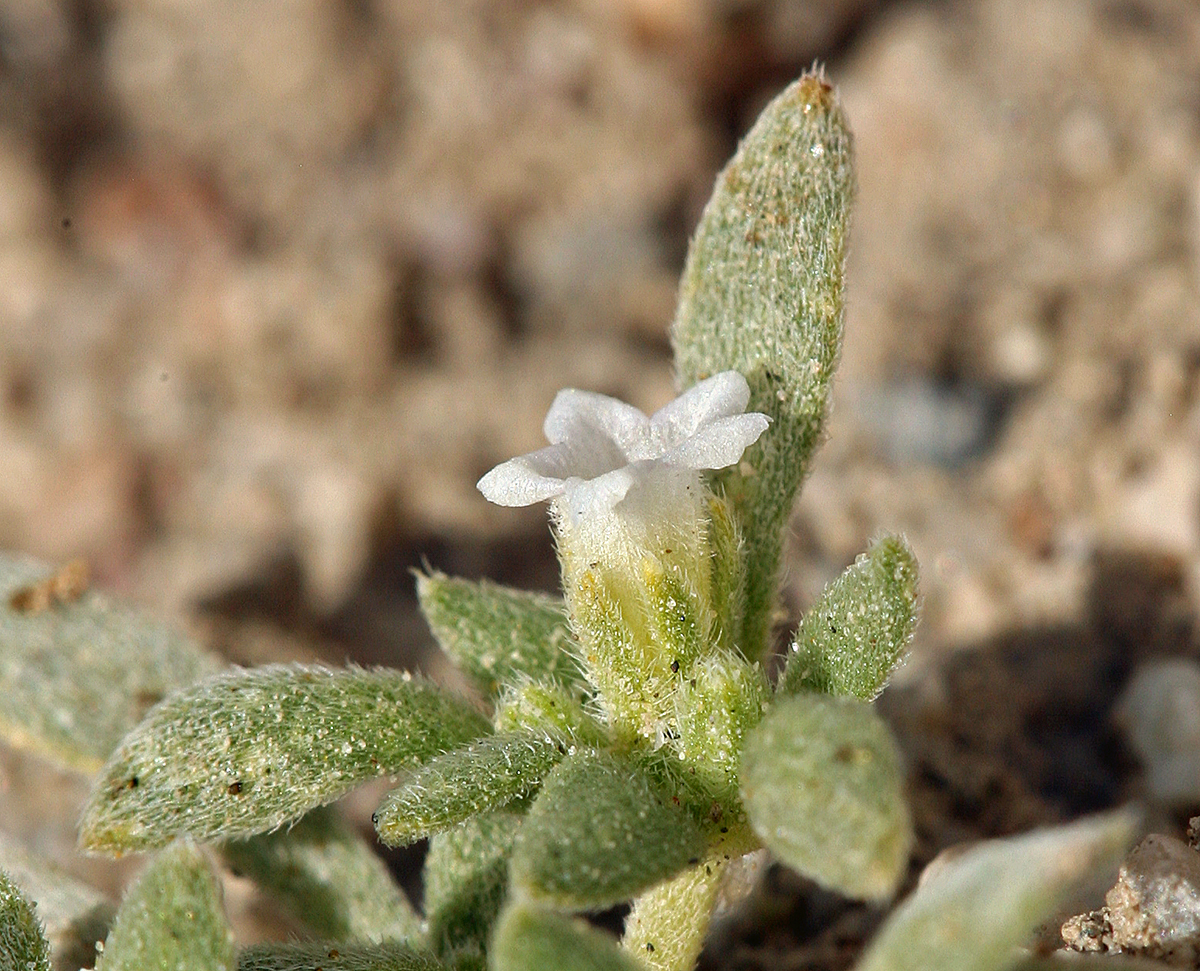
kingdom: Plantae
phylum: Tracheophyta
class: Magnoliopsida
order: Boraginales
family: Namaceae
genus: Nama
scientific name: Nama pusilla
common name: Eggleaf nama
